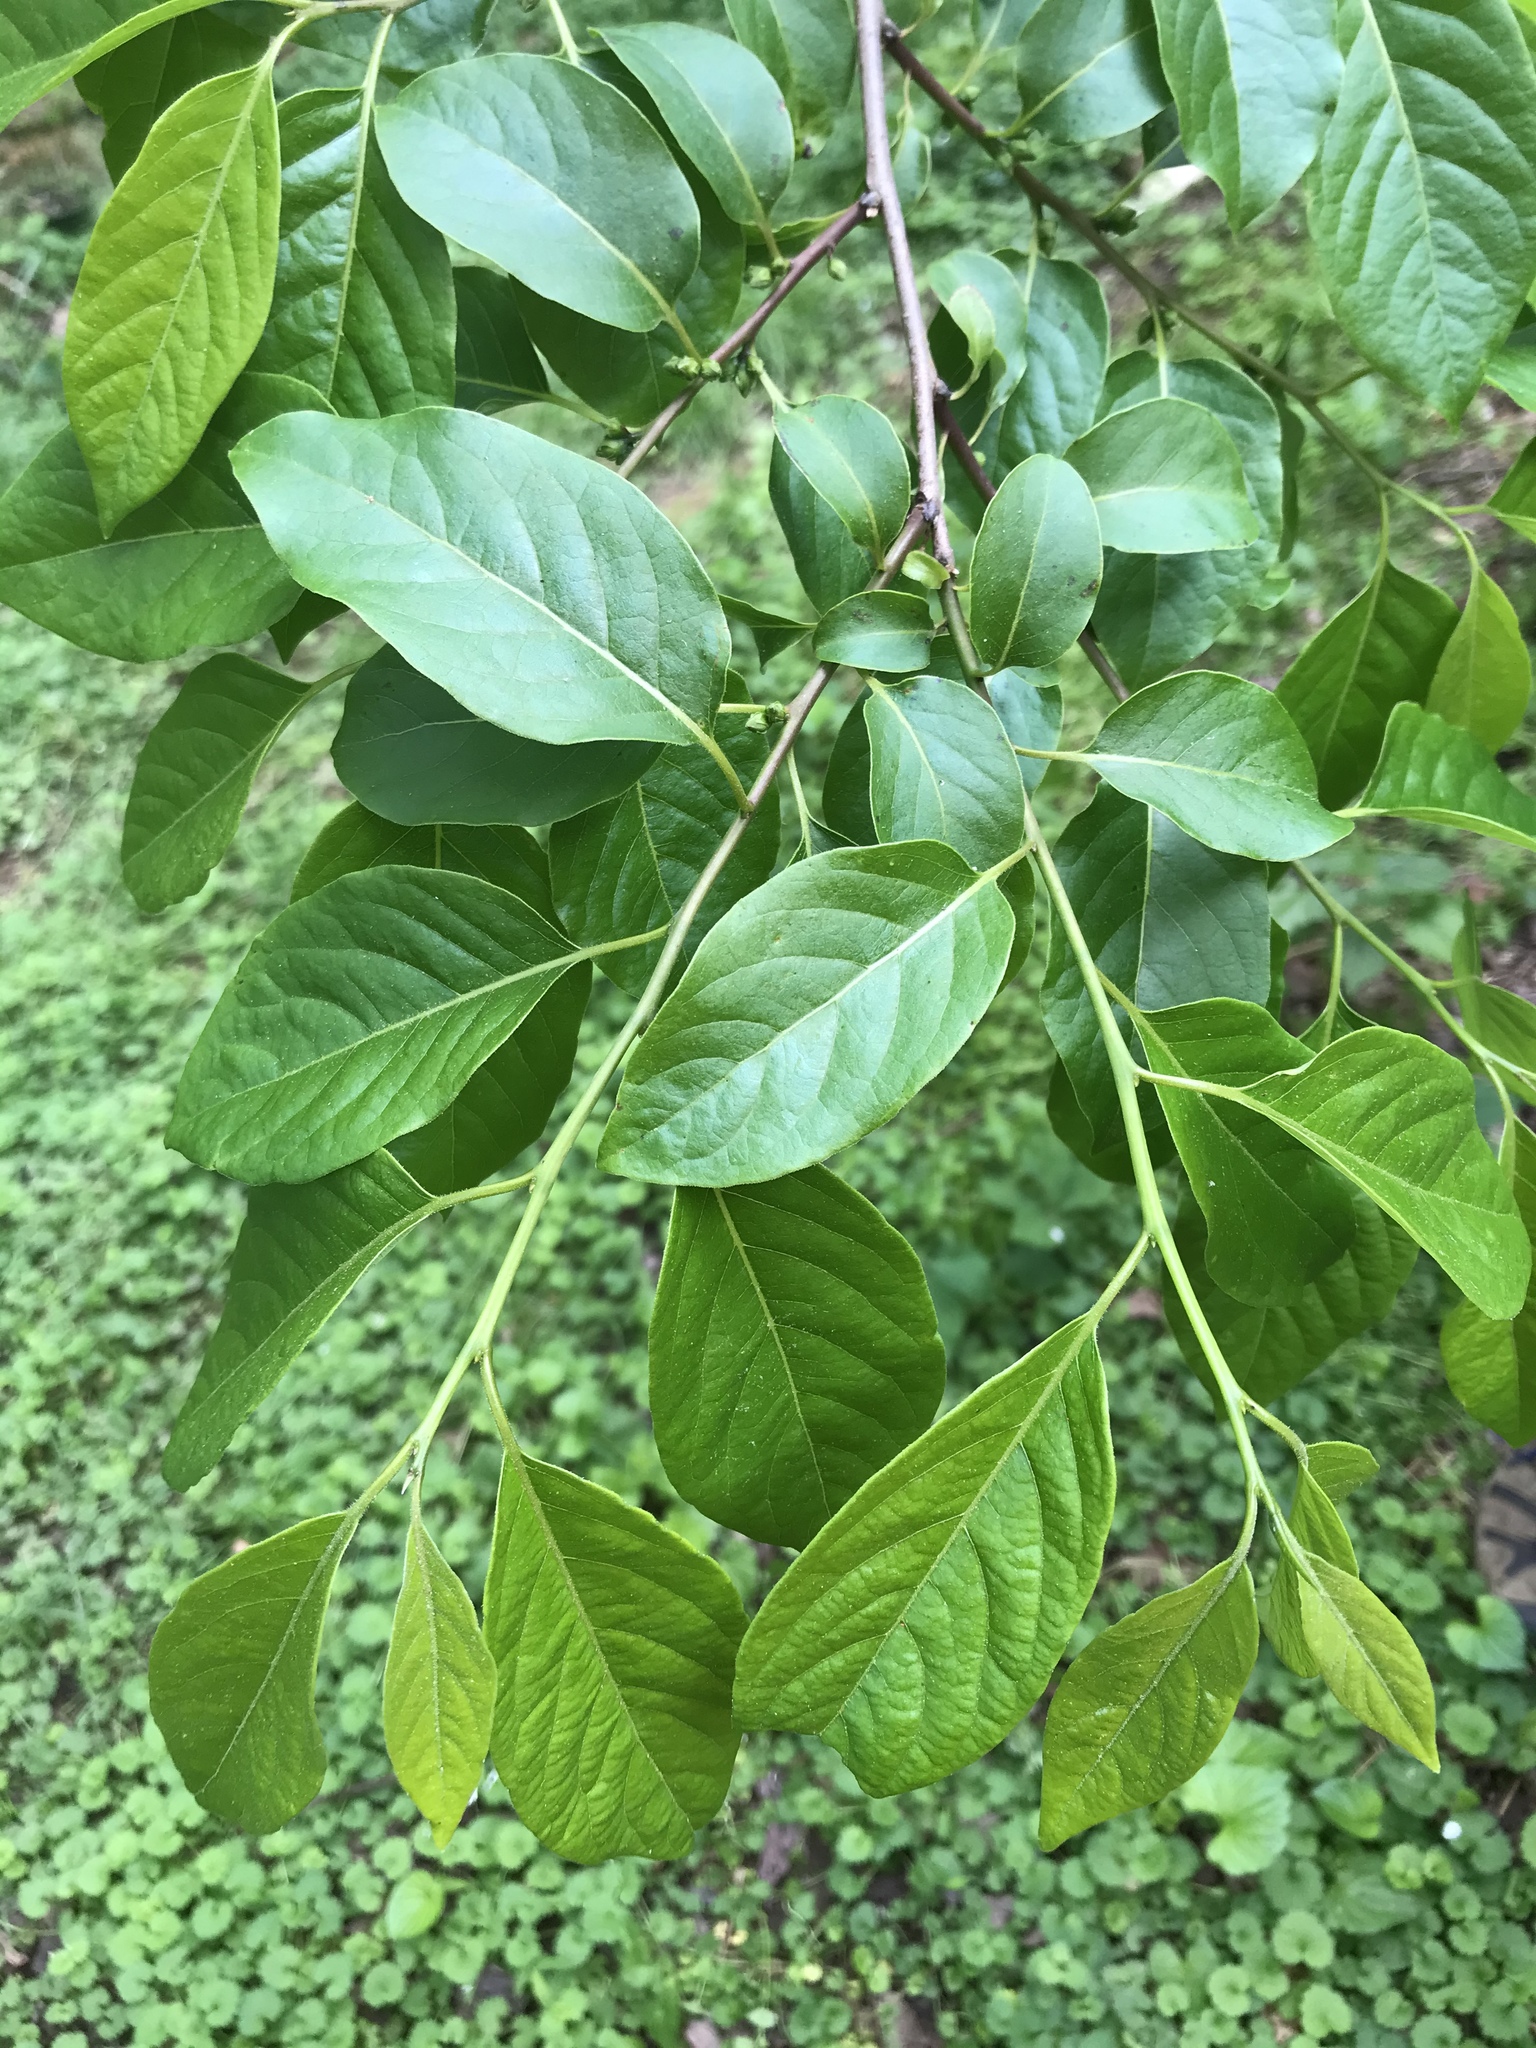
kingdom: Plantae
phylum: Tracheophyta
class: Magnoliopsida
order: Ericales
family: Ebenaceae
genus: Diospyros
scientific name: Diospyros virginiana
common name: Persimmon
